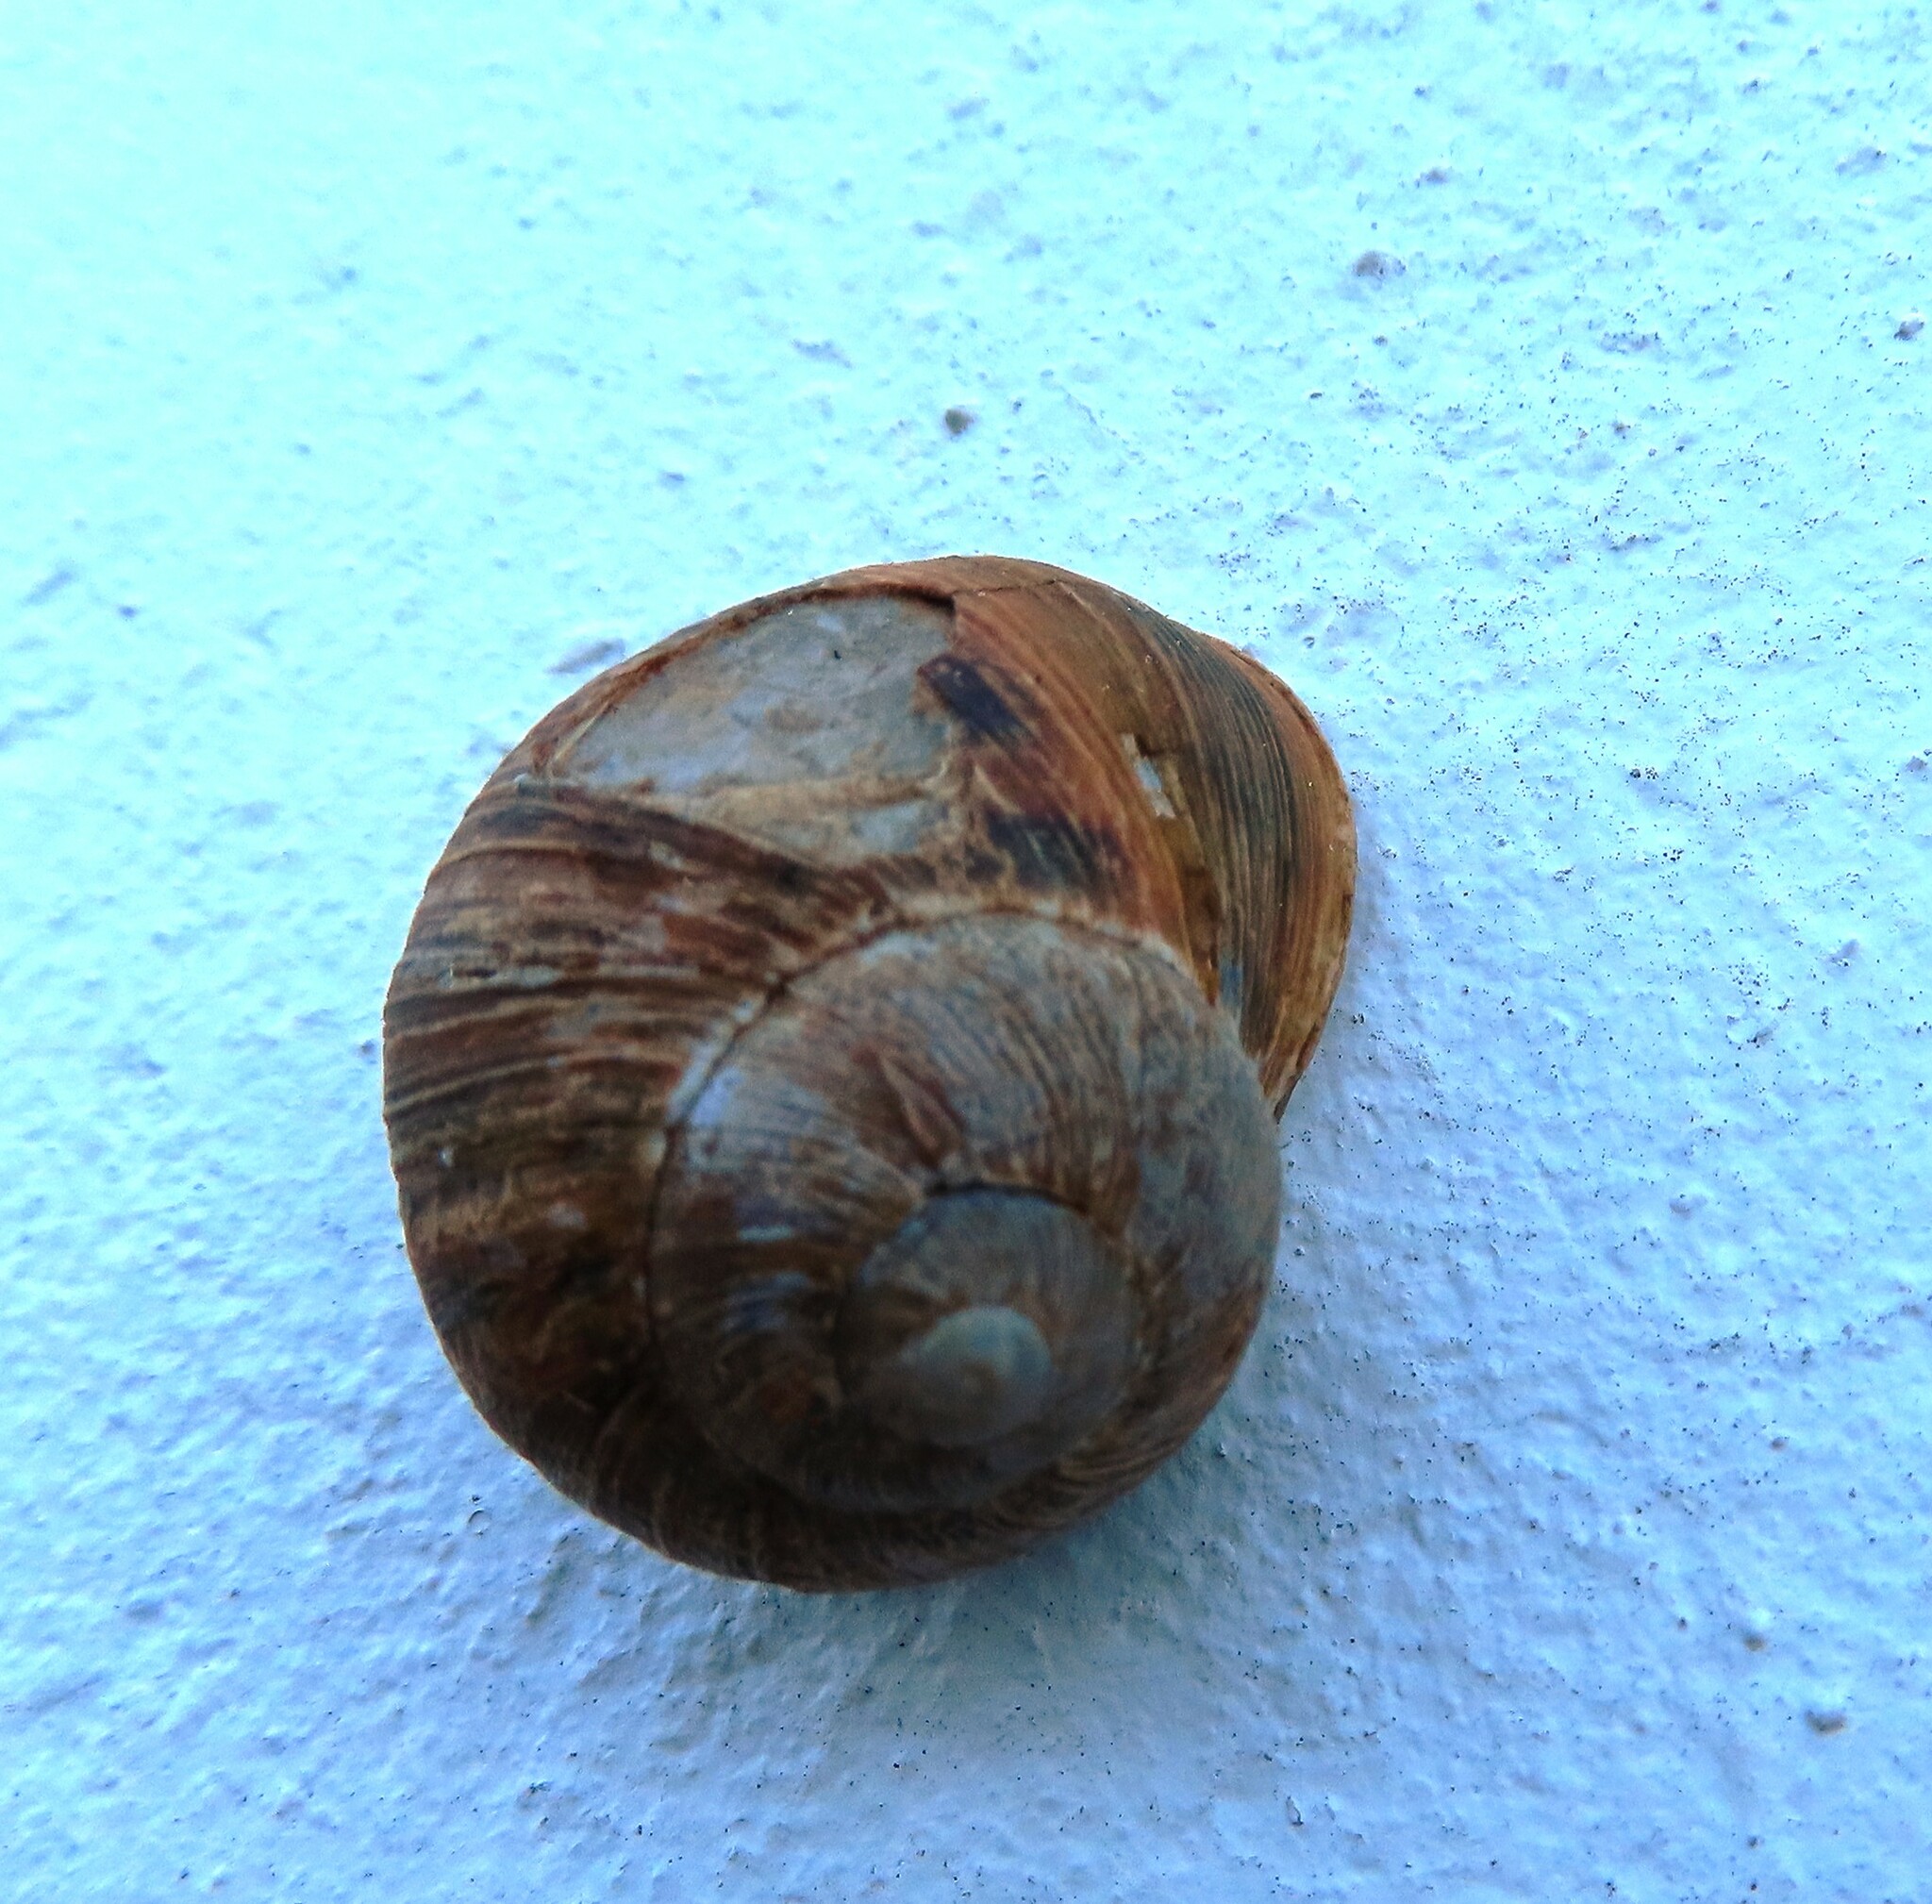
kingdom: Animalia
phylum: Mollusca
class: Gastropoda
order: Stylommatophora
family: Helicidae
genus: Cornu
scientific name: Cornu aspersum
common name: Brown garden snail
